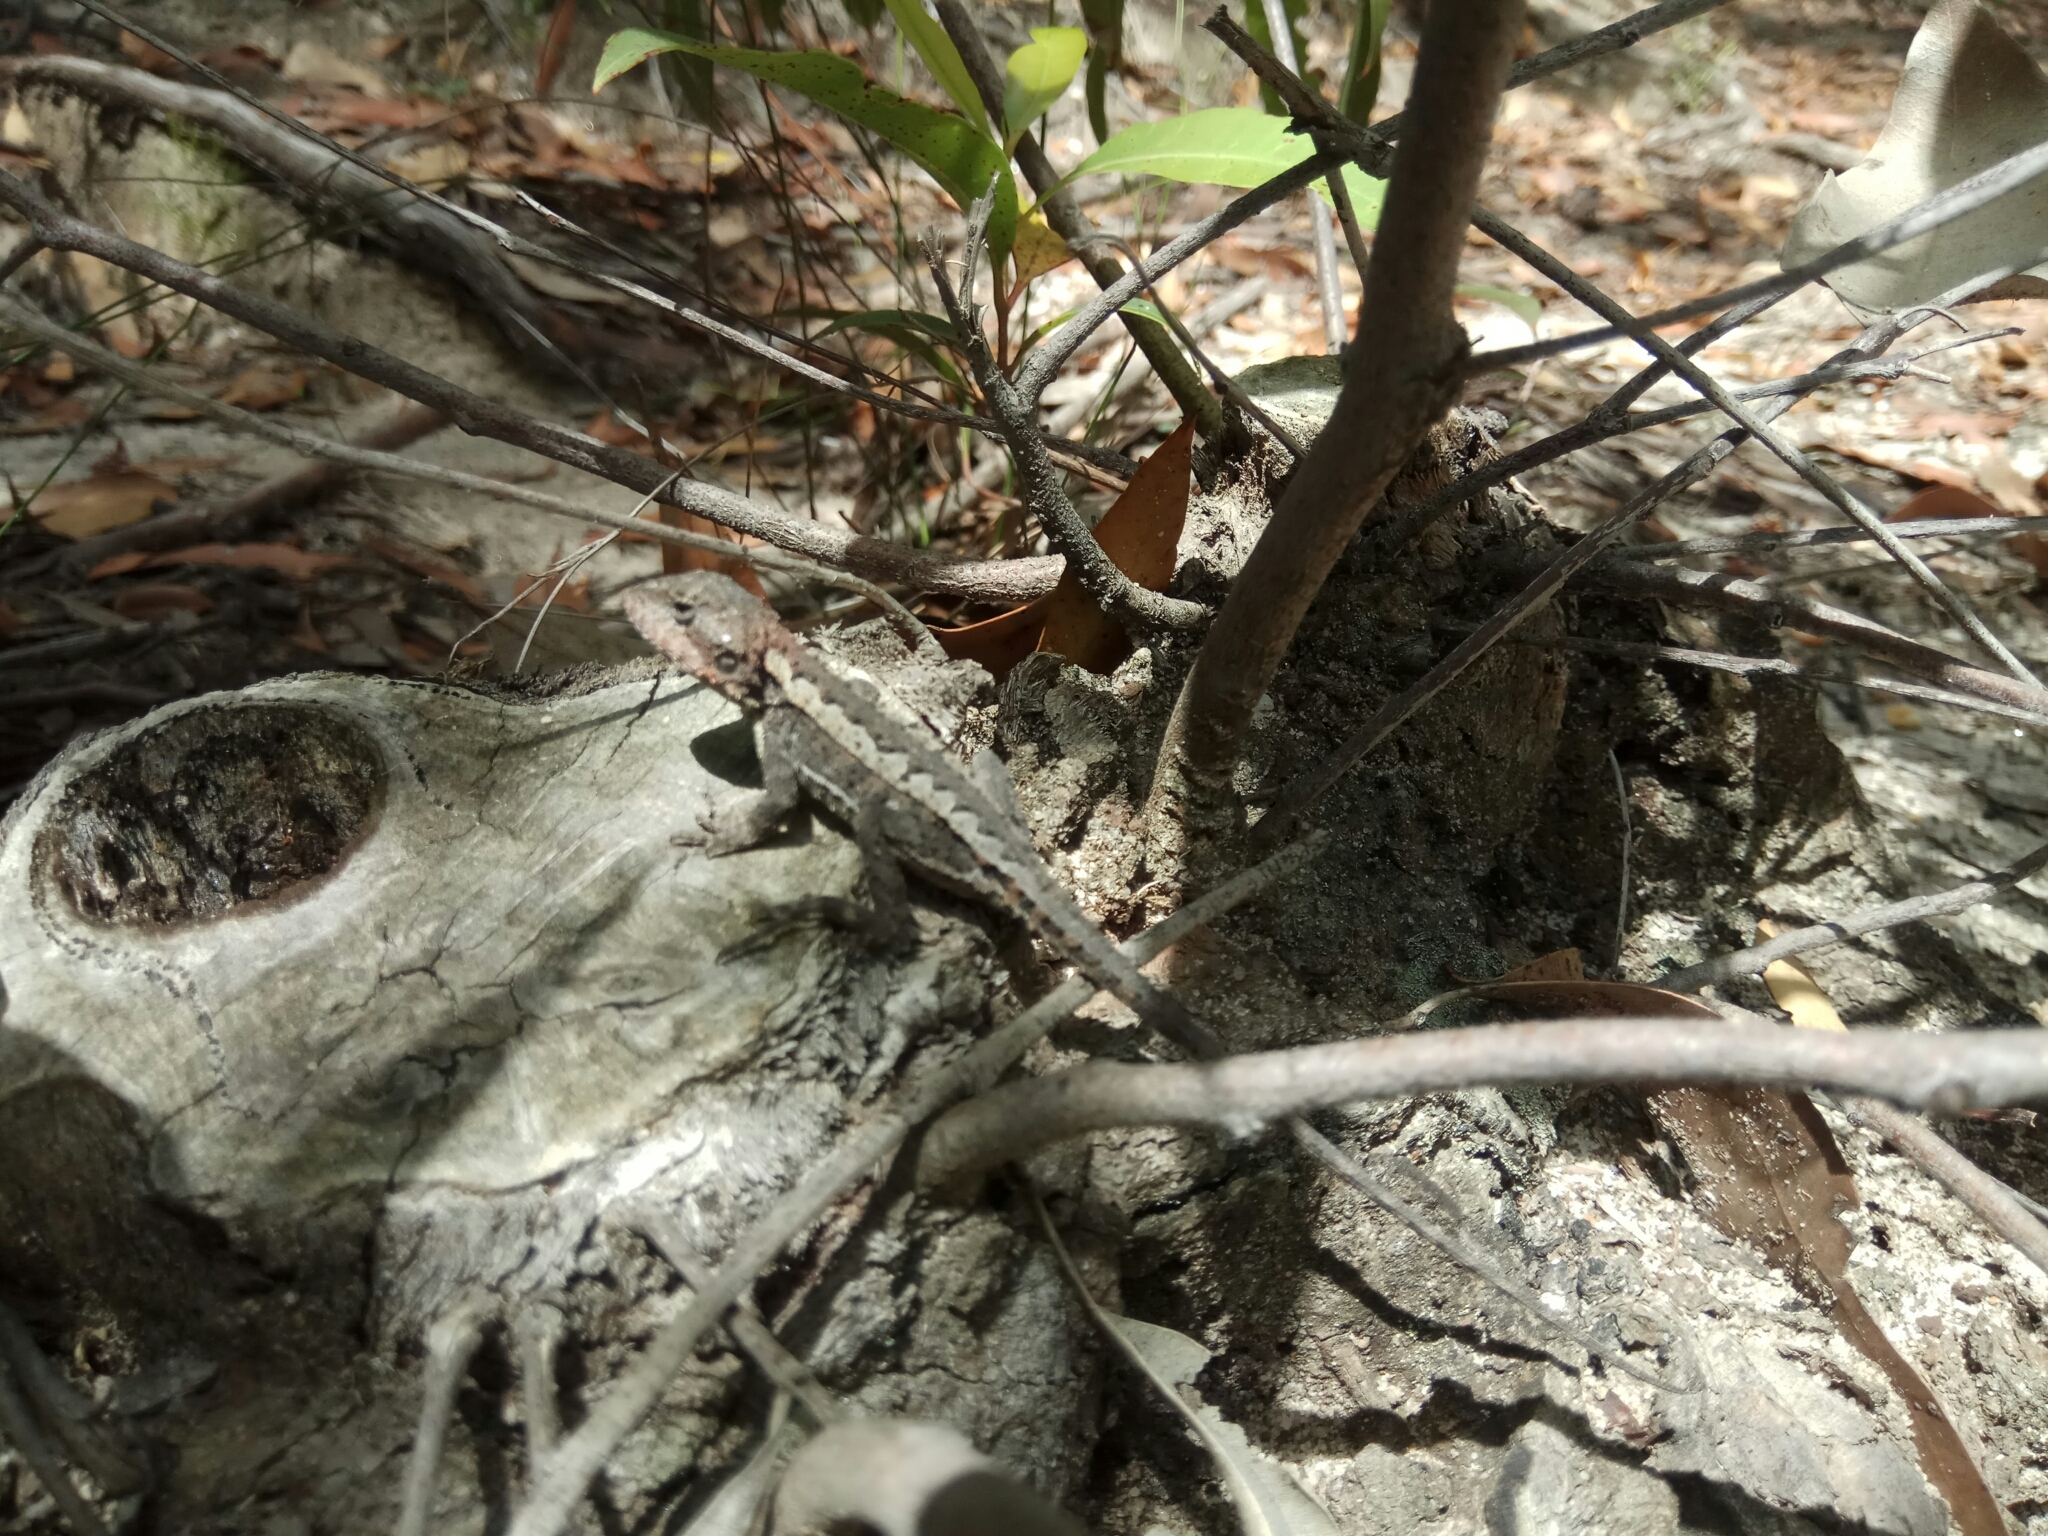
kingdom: Animalia
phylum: Chordata
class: Squamata
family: Agamidae
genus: Rankinia
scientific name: Rankinia diemensis
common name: Mountain dragon
